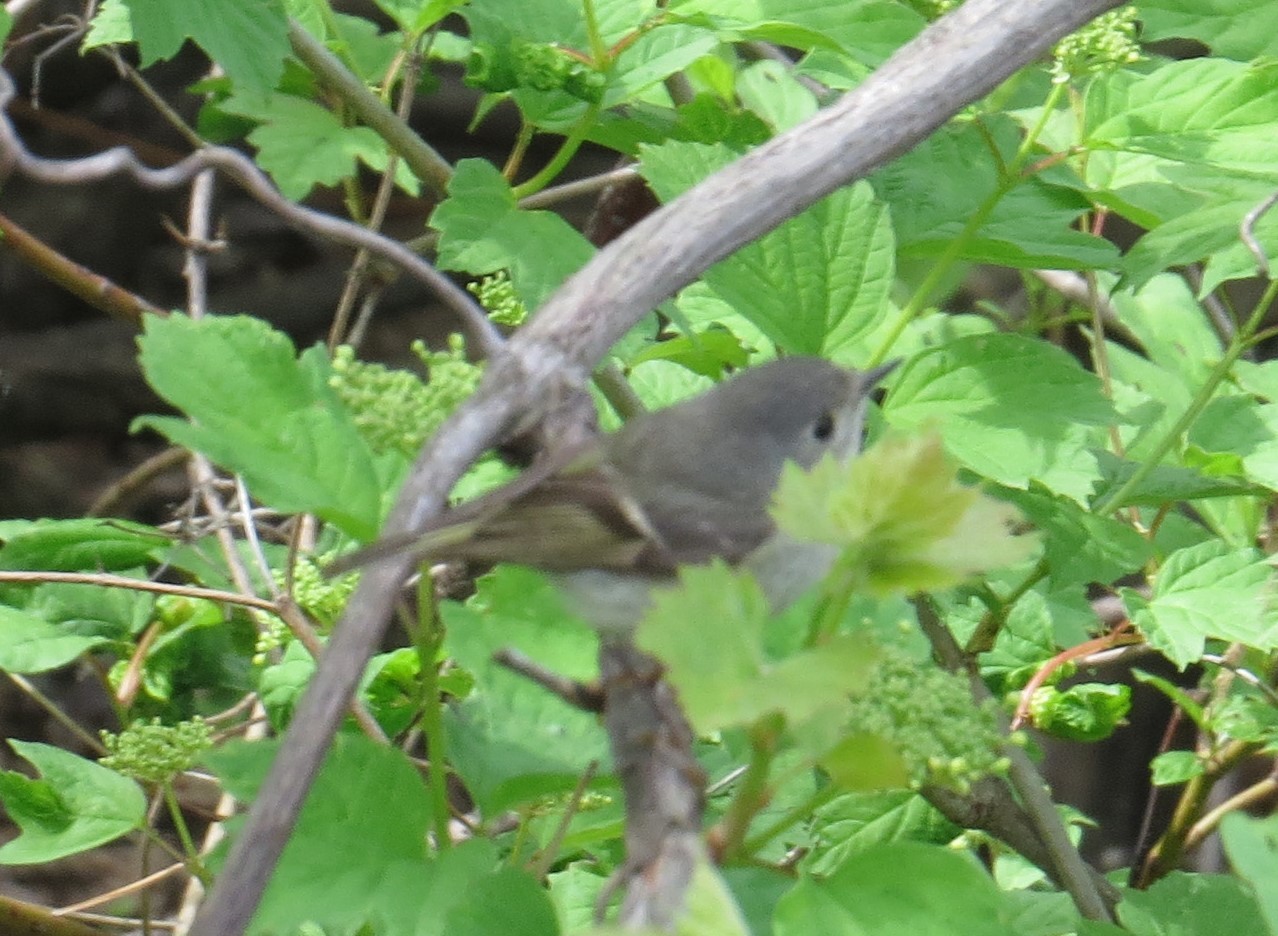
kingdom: Animalia
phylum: Chordata
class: Aves
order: Passeriformes
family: Regulidae
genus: Regulus
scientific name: Regulus calendula
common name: Ruby-crowned kinglet
